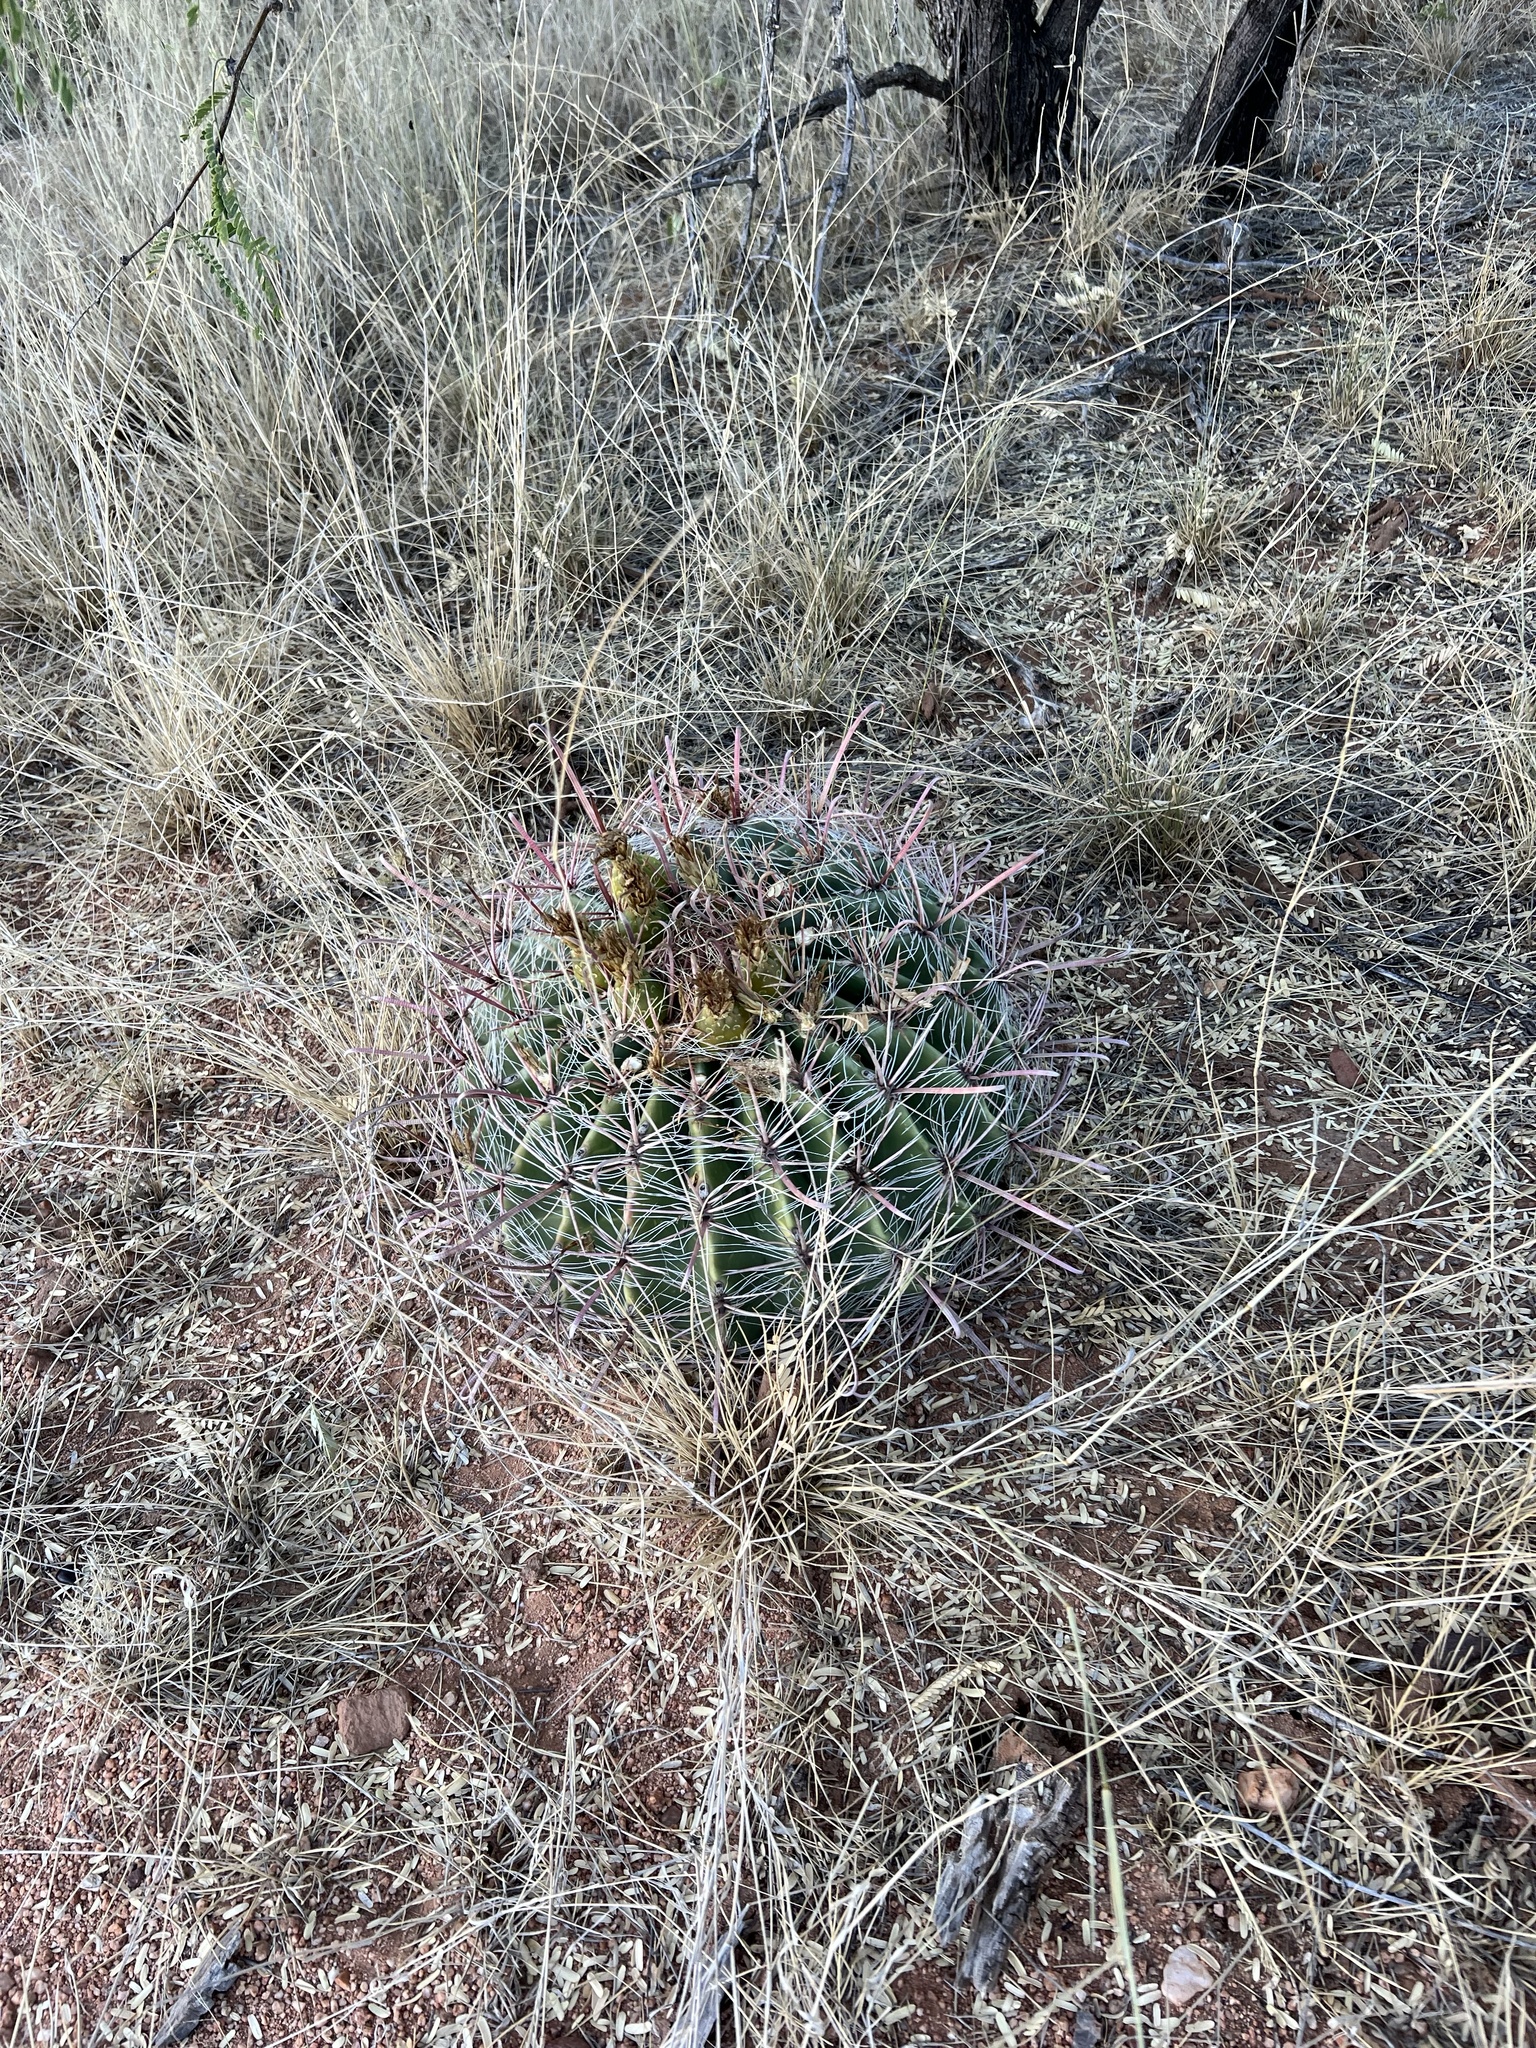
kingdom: Plantae
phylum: Tracheophyta
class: Magnoliopsida
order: Caryophyllales
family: Cactaceae
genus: Ferocactus
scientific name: Ferocactus wislizeni
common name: Candy barrel cactus
